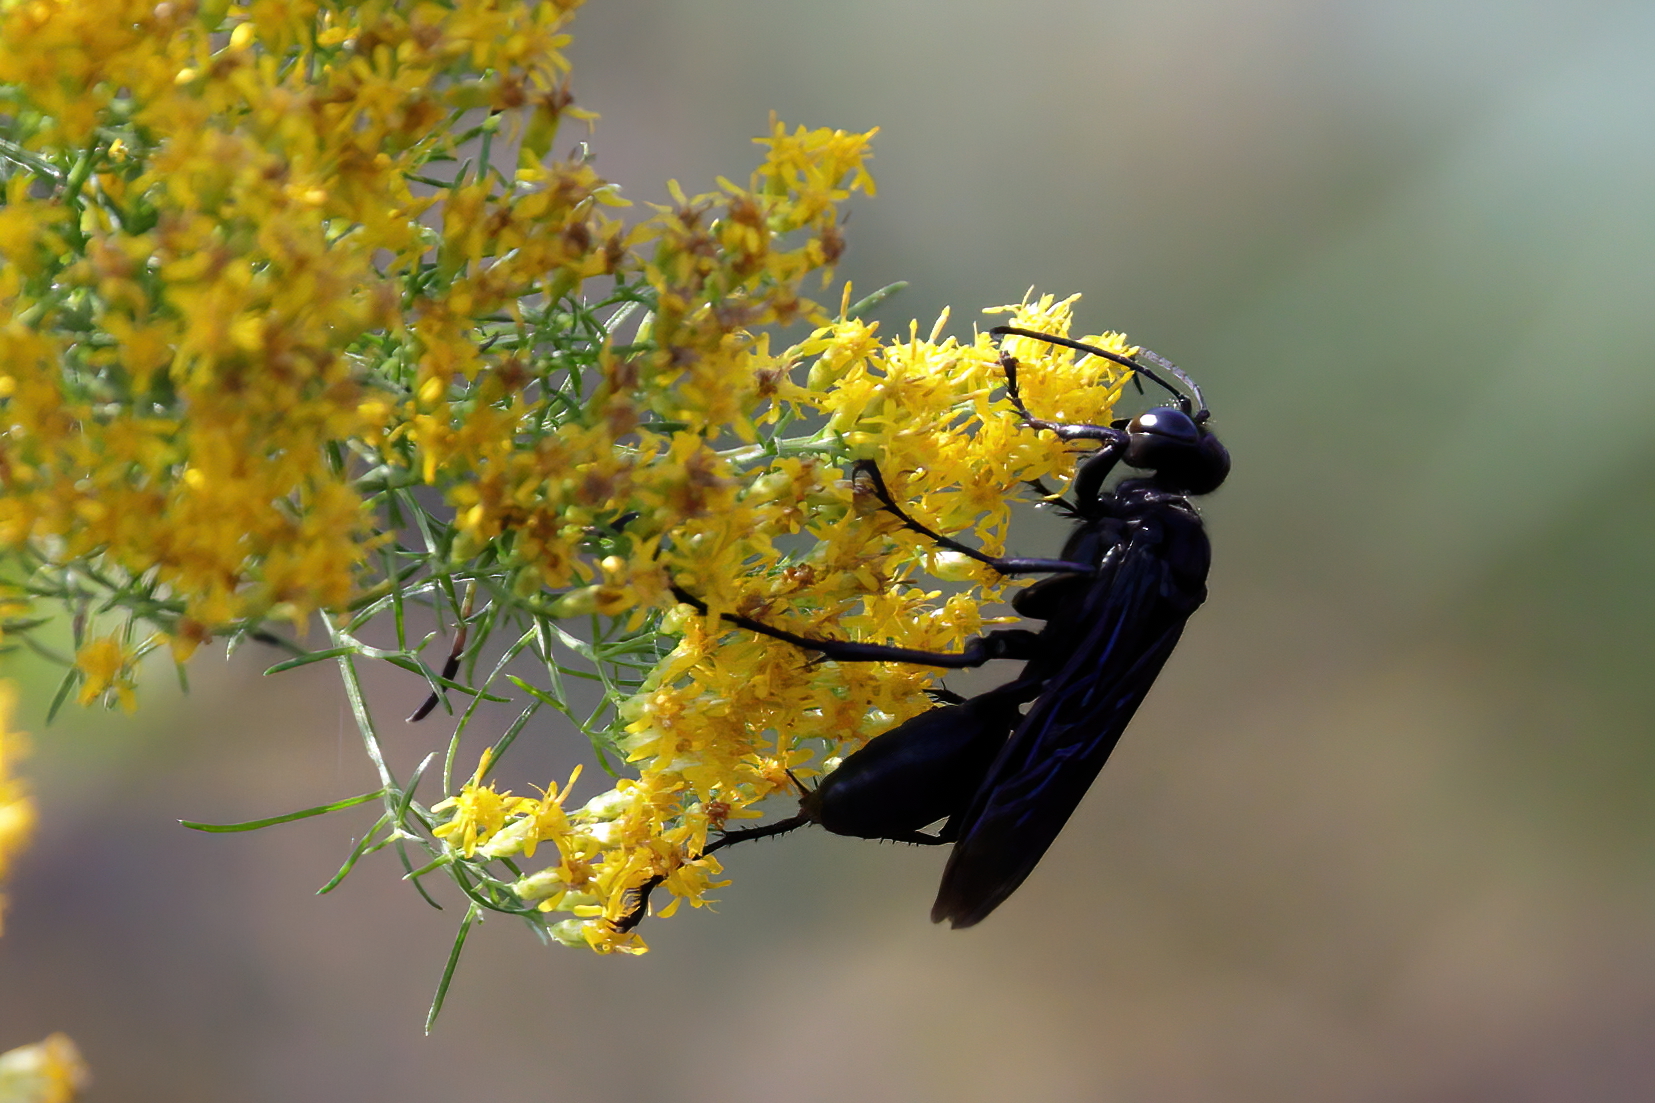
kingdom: Animalia
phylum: Arthropoda
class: Insecta
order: Hymenoptera
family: Sphecidae
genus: Sphex
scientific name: Sphex pensylvanicus
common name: Great black digger wasp
